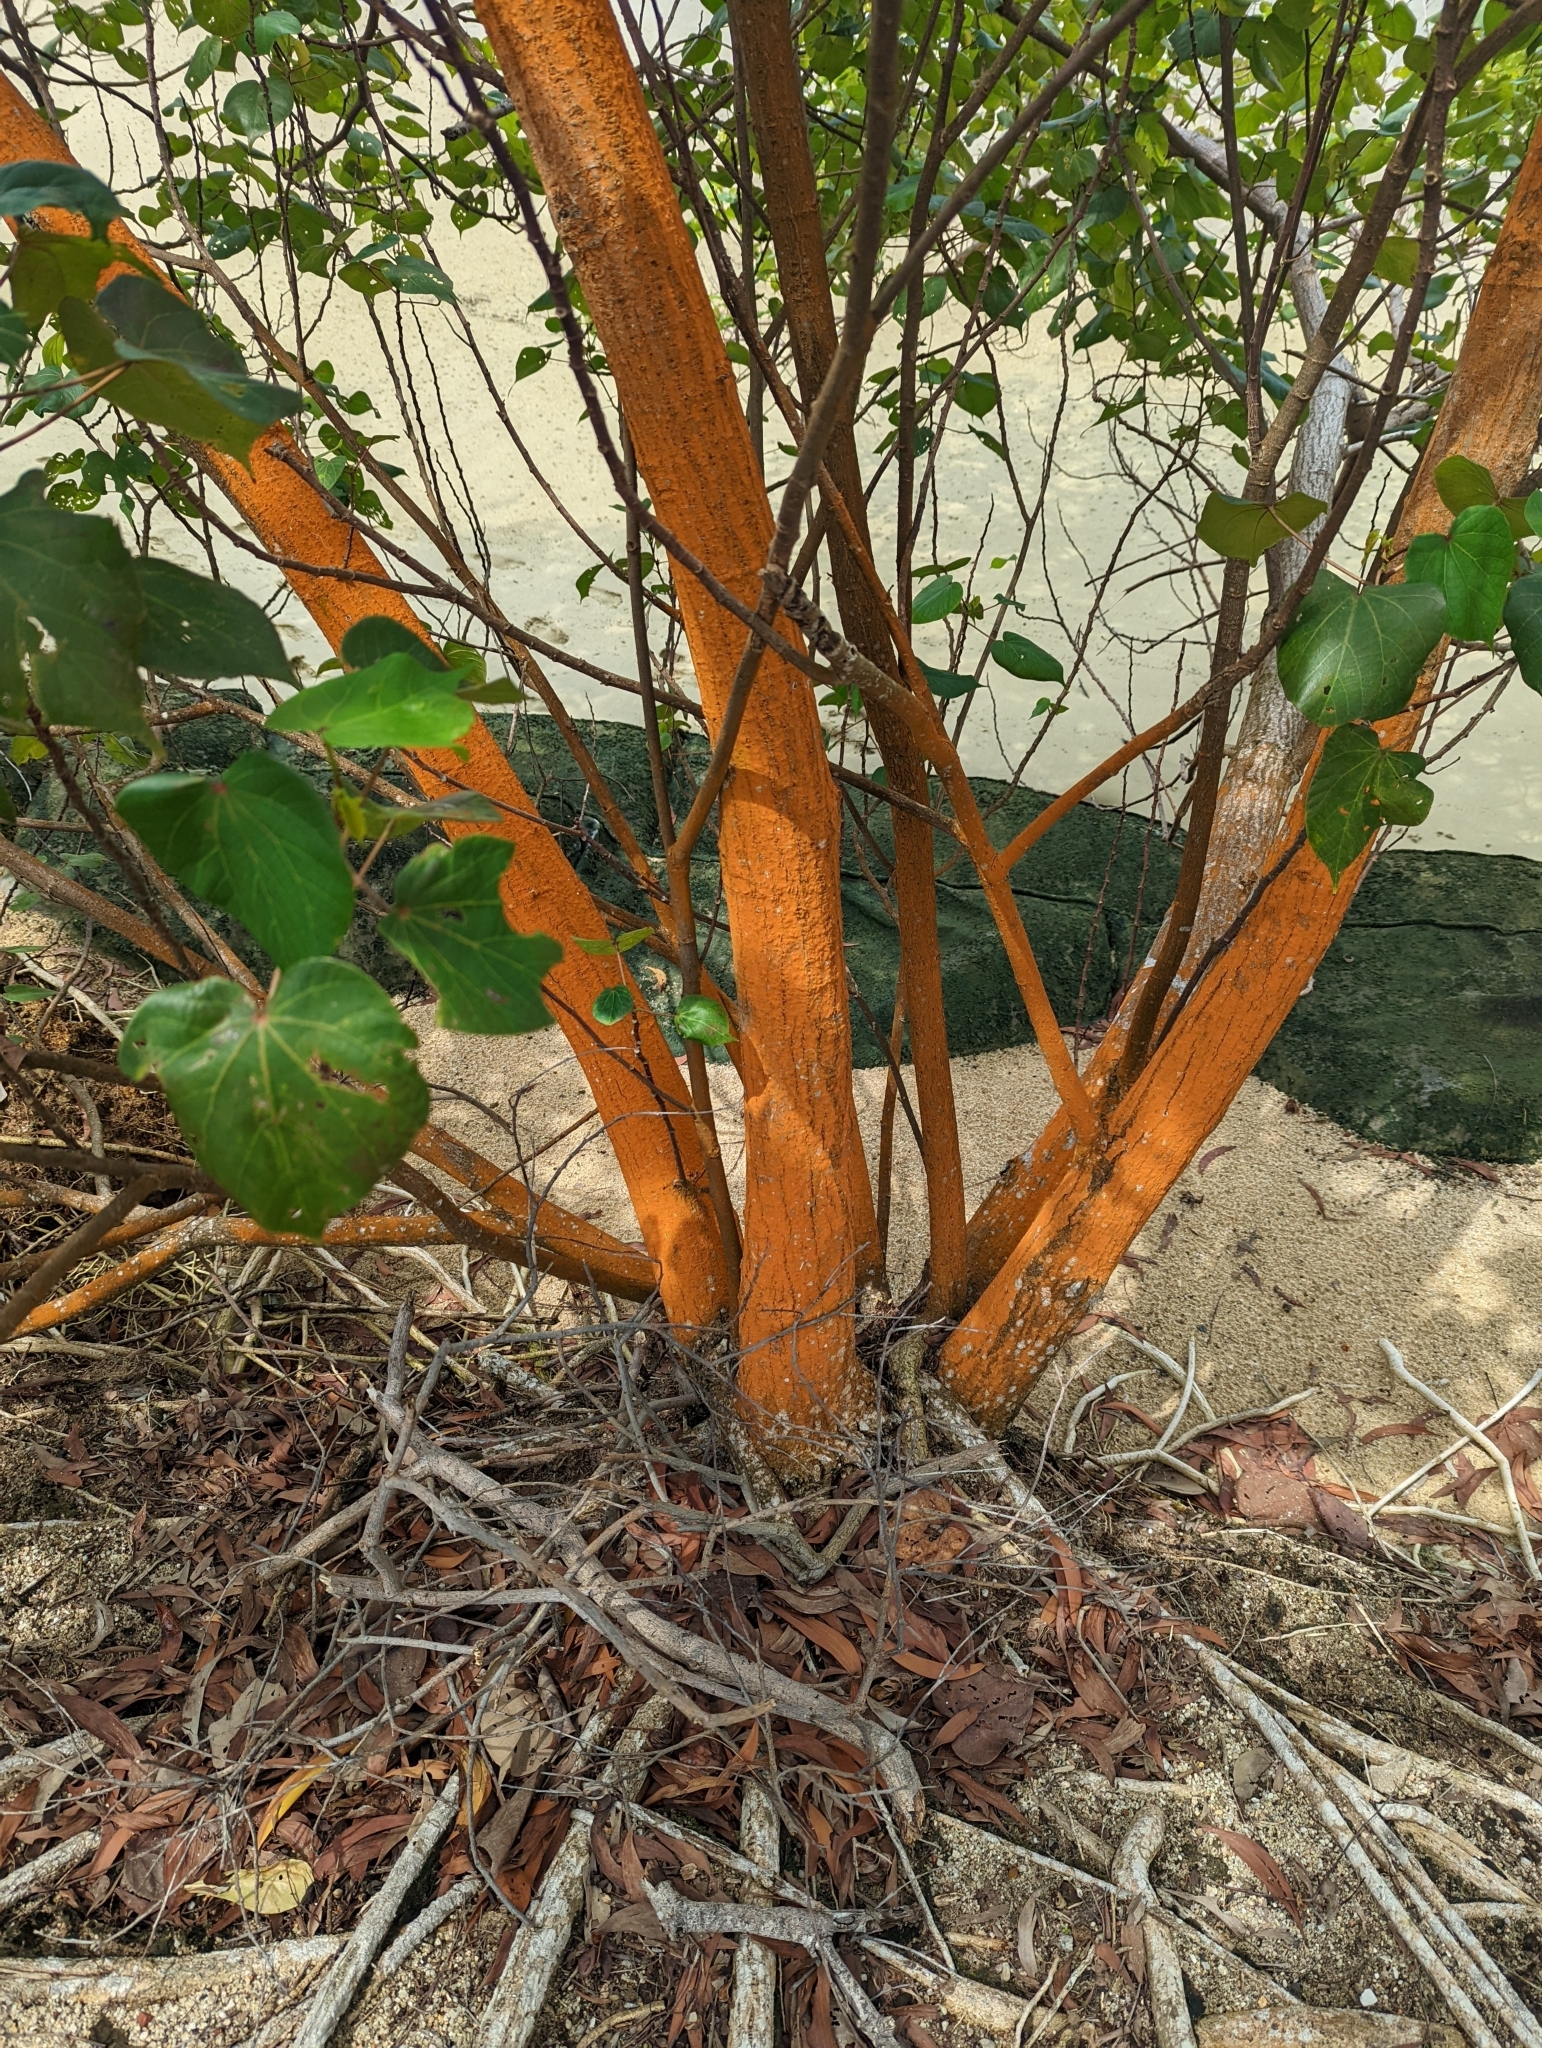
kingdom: Plantae
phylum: Tracheophyta
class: Magnoliopsida
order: Malvales
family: Malvaceae
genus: Talipariti
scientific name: Talipariti tiliaceum
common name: Sea hibiscus
